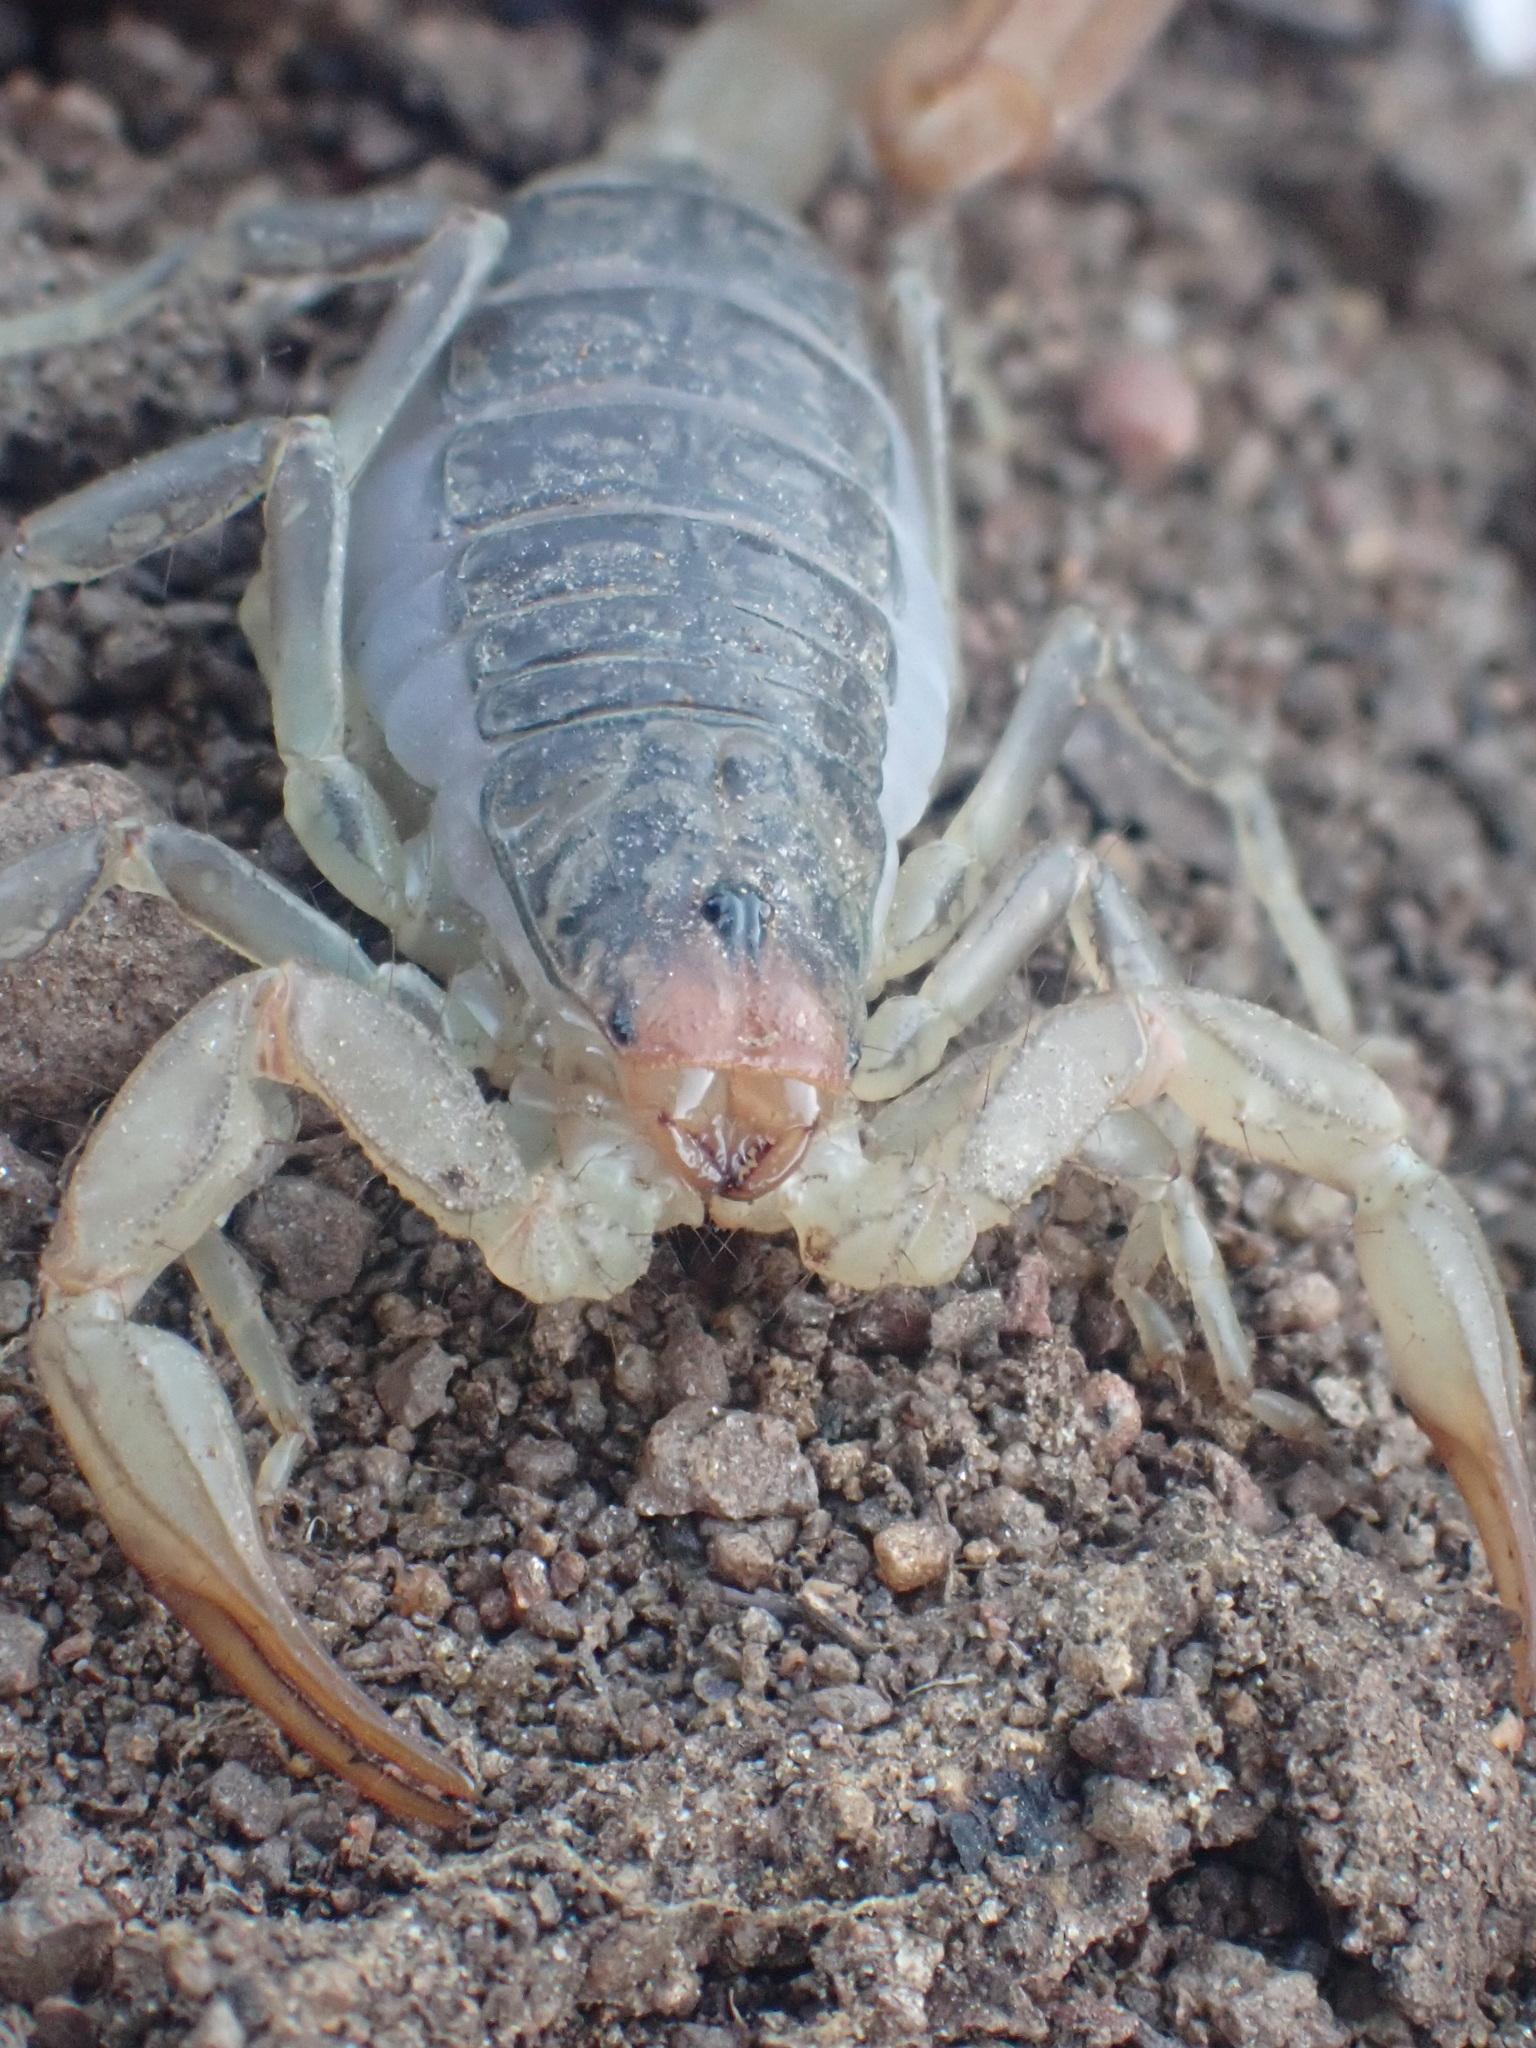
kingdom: Animalia
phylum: Arthropoda
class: Arachnida
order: Scorpiones
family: Vaejovidae
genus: Paruroctonus
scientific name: Paruroctonus silvestrii
